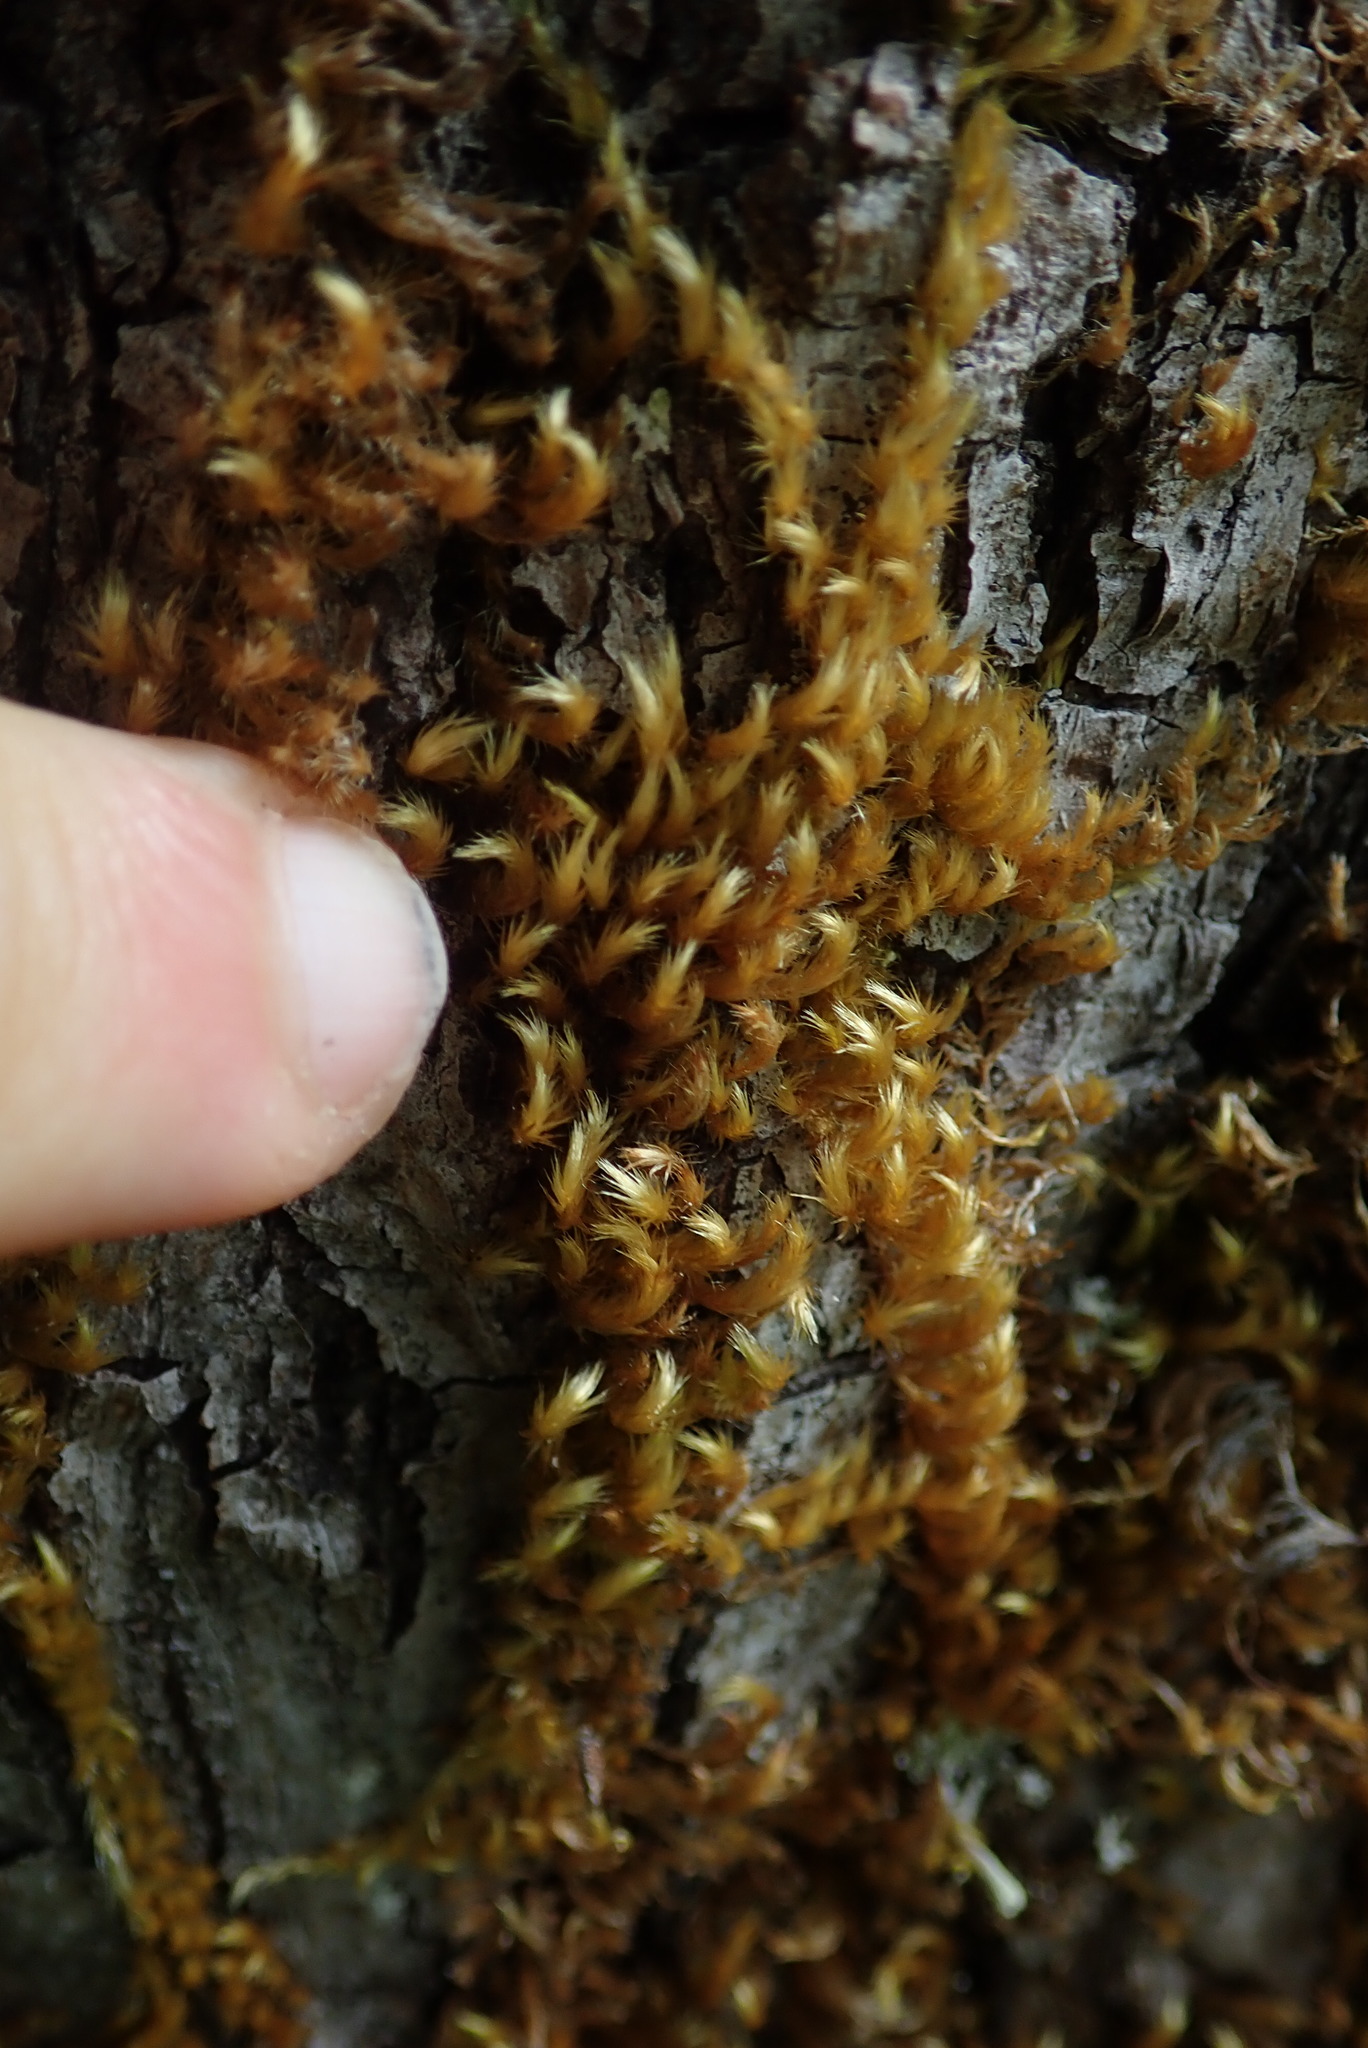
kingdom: Plantae
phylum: Bryophyta
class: Bryopsida
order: Hypnales
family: Brachytheciaceae
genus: Homalothecium
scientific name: Homalothecium fulgescens
